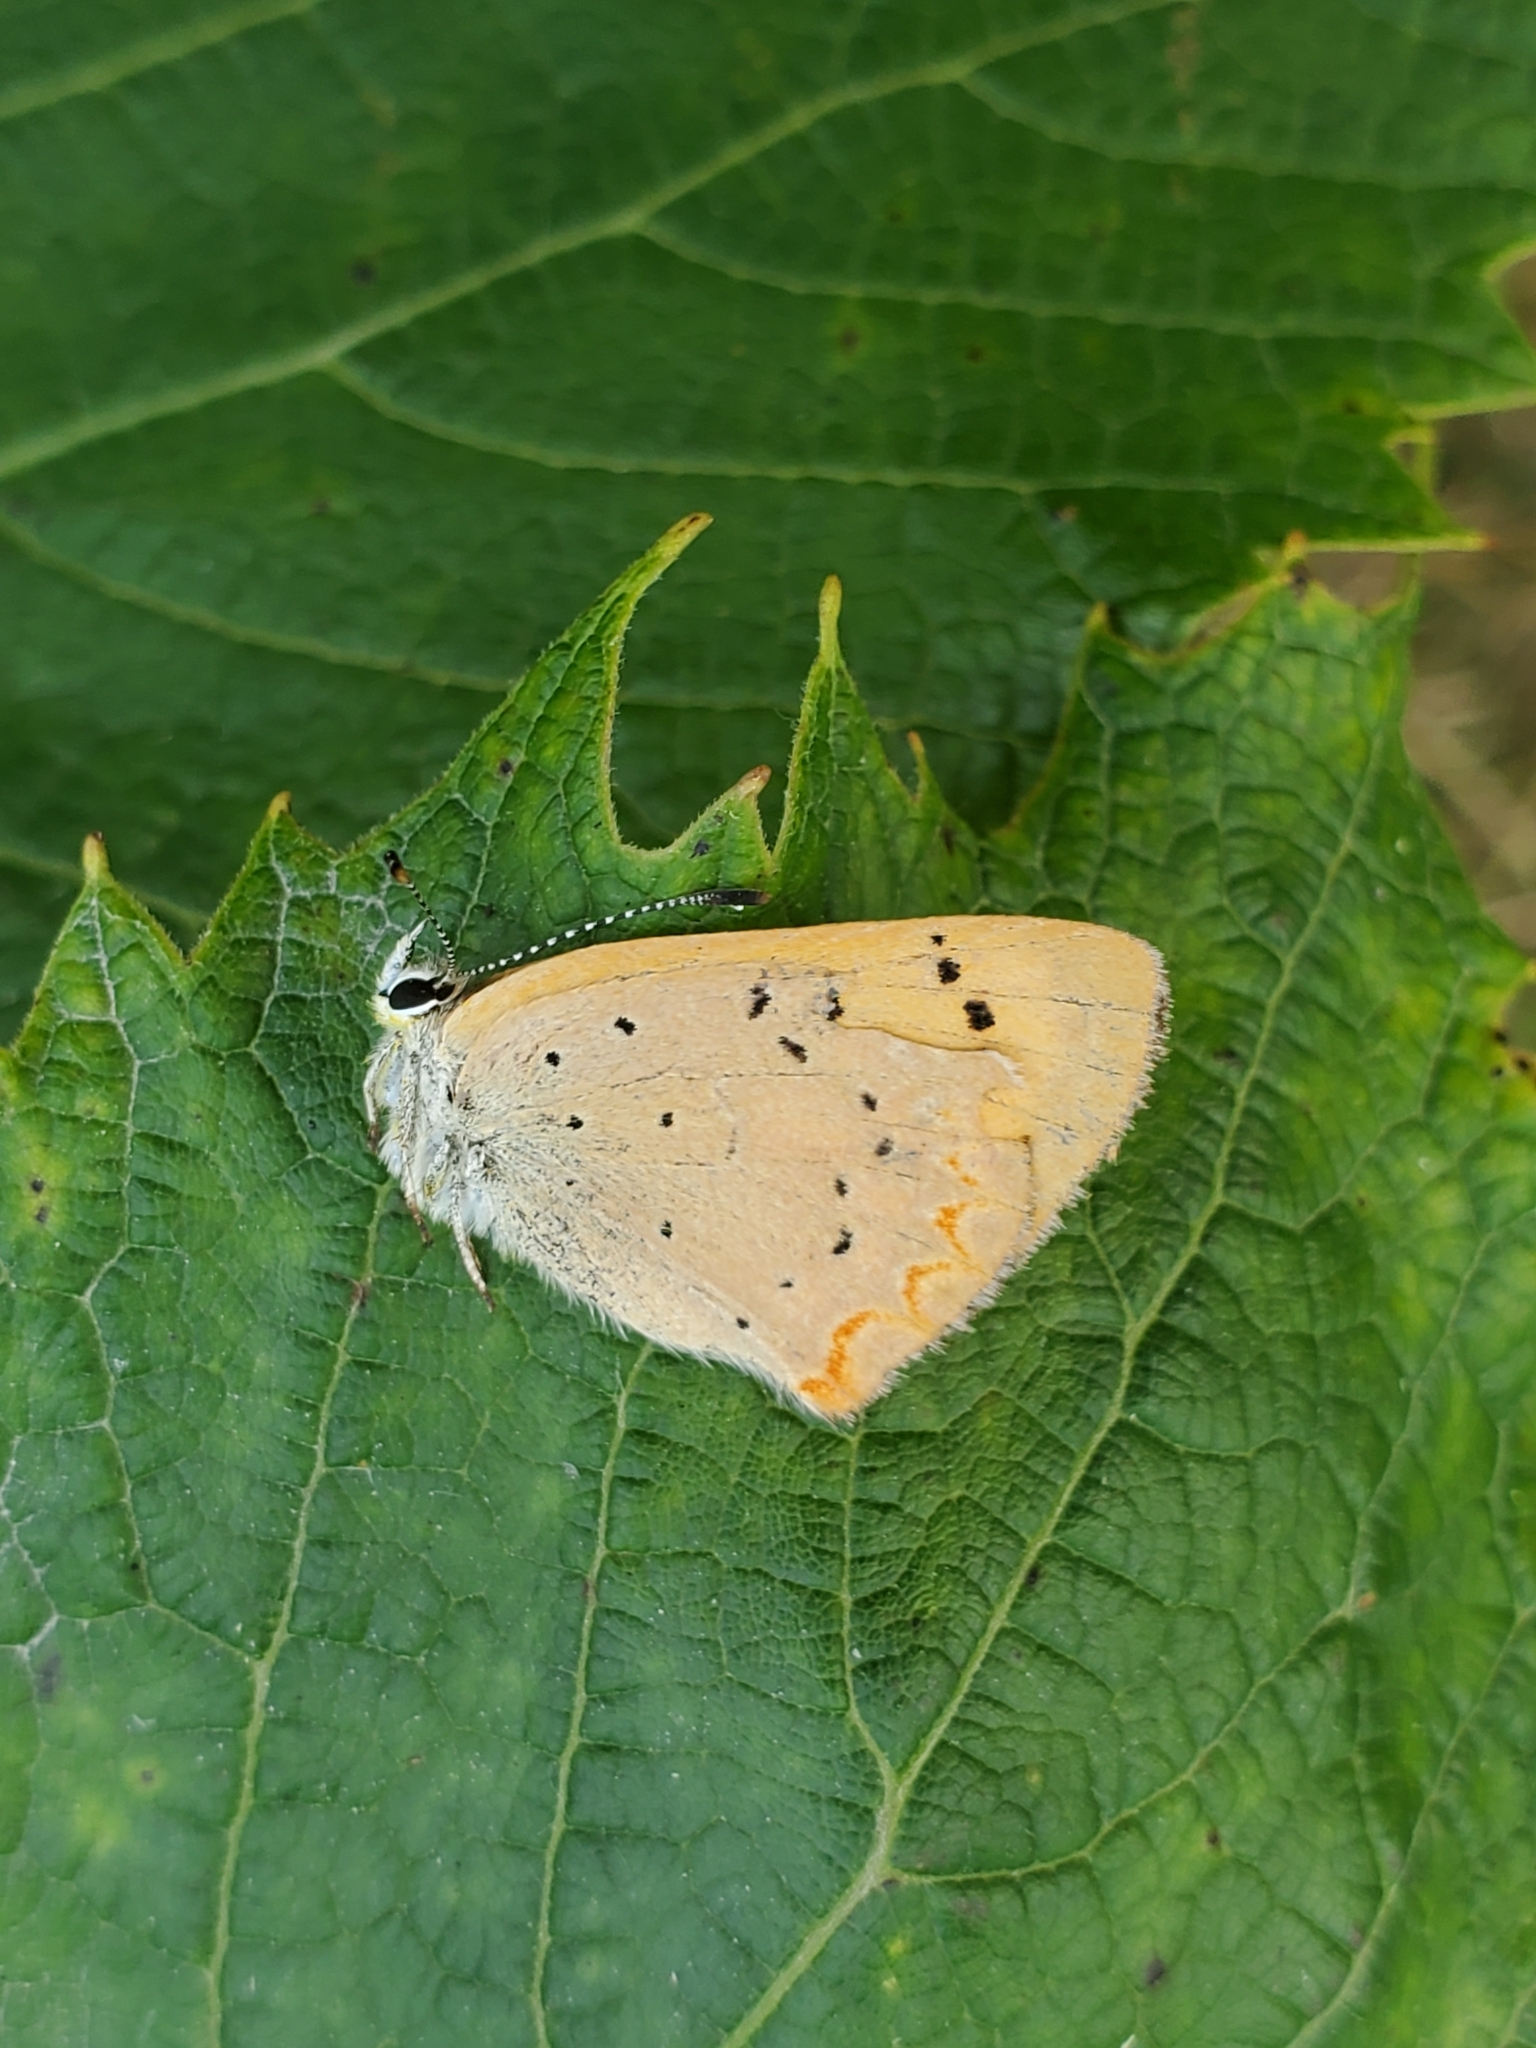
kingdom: Animalia
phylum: Arthropoda
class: Insecta
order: Lepidoptera
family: Lycaenidae
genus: Tharsalea
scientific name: Tharsalea helloides
